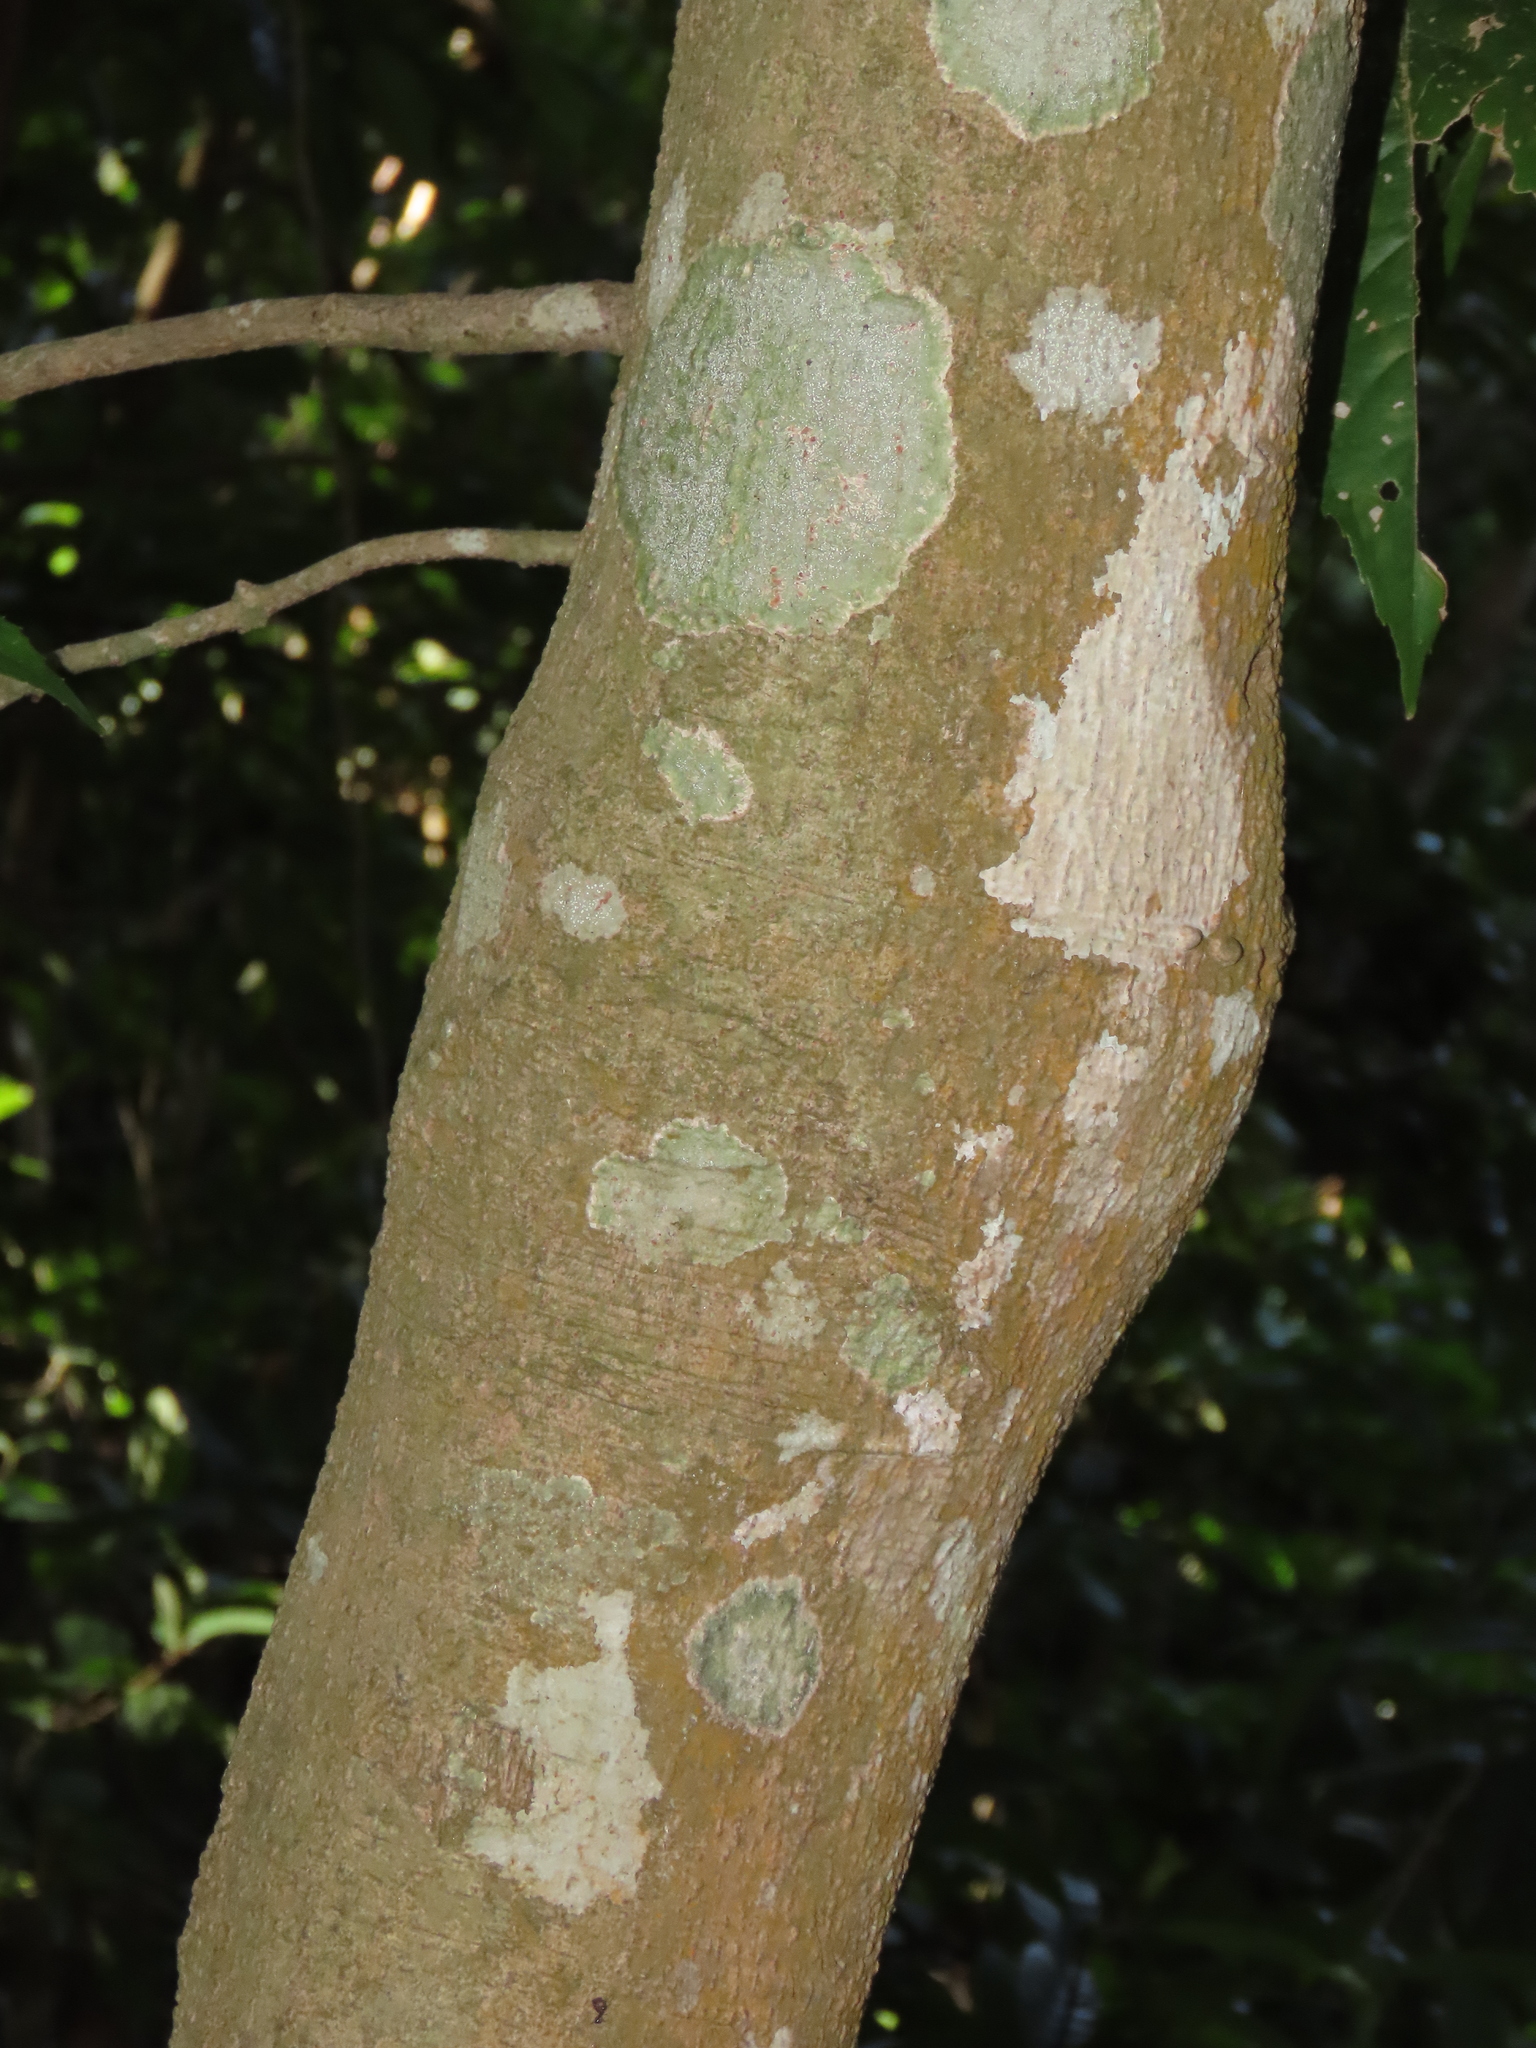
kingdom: Plantae
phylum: Tracheophyta
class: Magnoliopsida
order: Proteales
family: Proteaceae
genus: Helicia
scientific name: Helicia formosana
